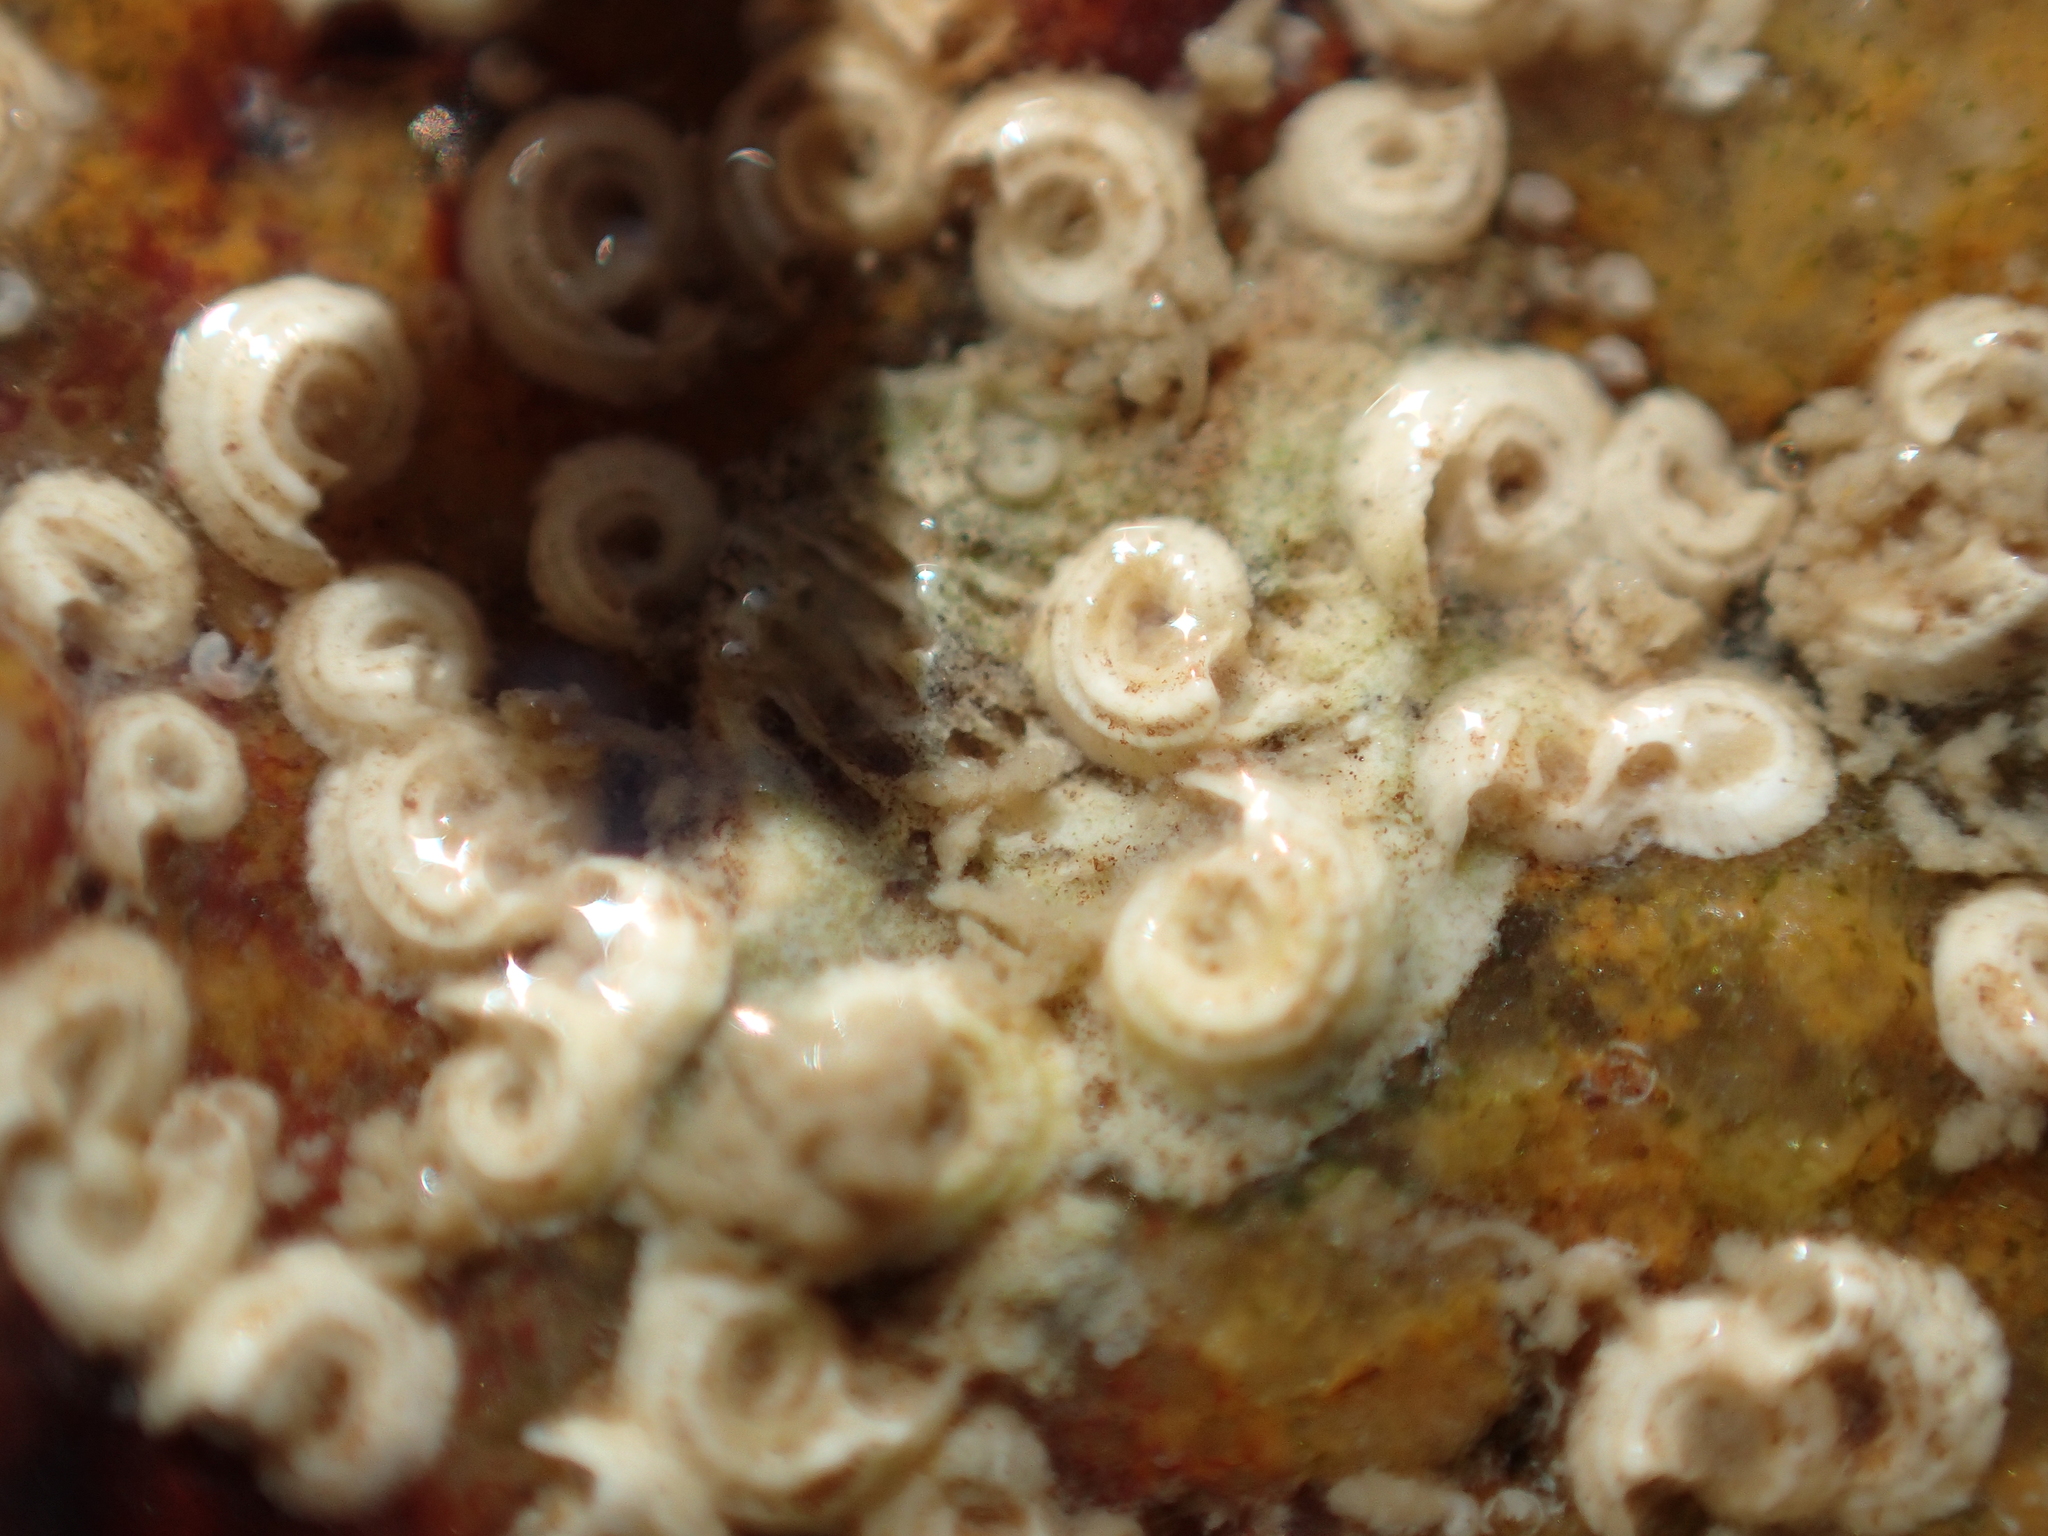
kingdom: Animalia
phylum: Annelida
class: Polychaeta
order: Sabellida
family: Serpulidae
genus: Janua
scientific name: Janua heterostropha
